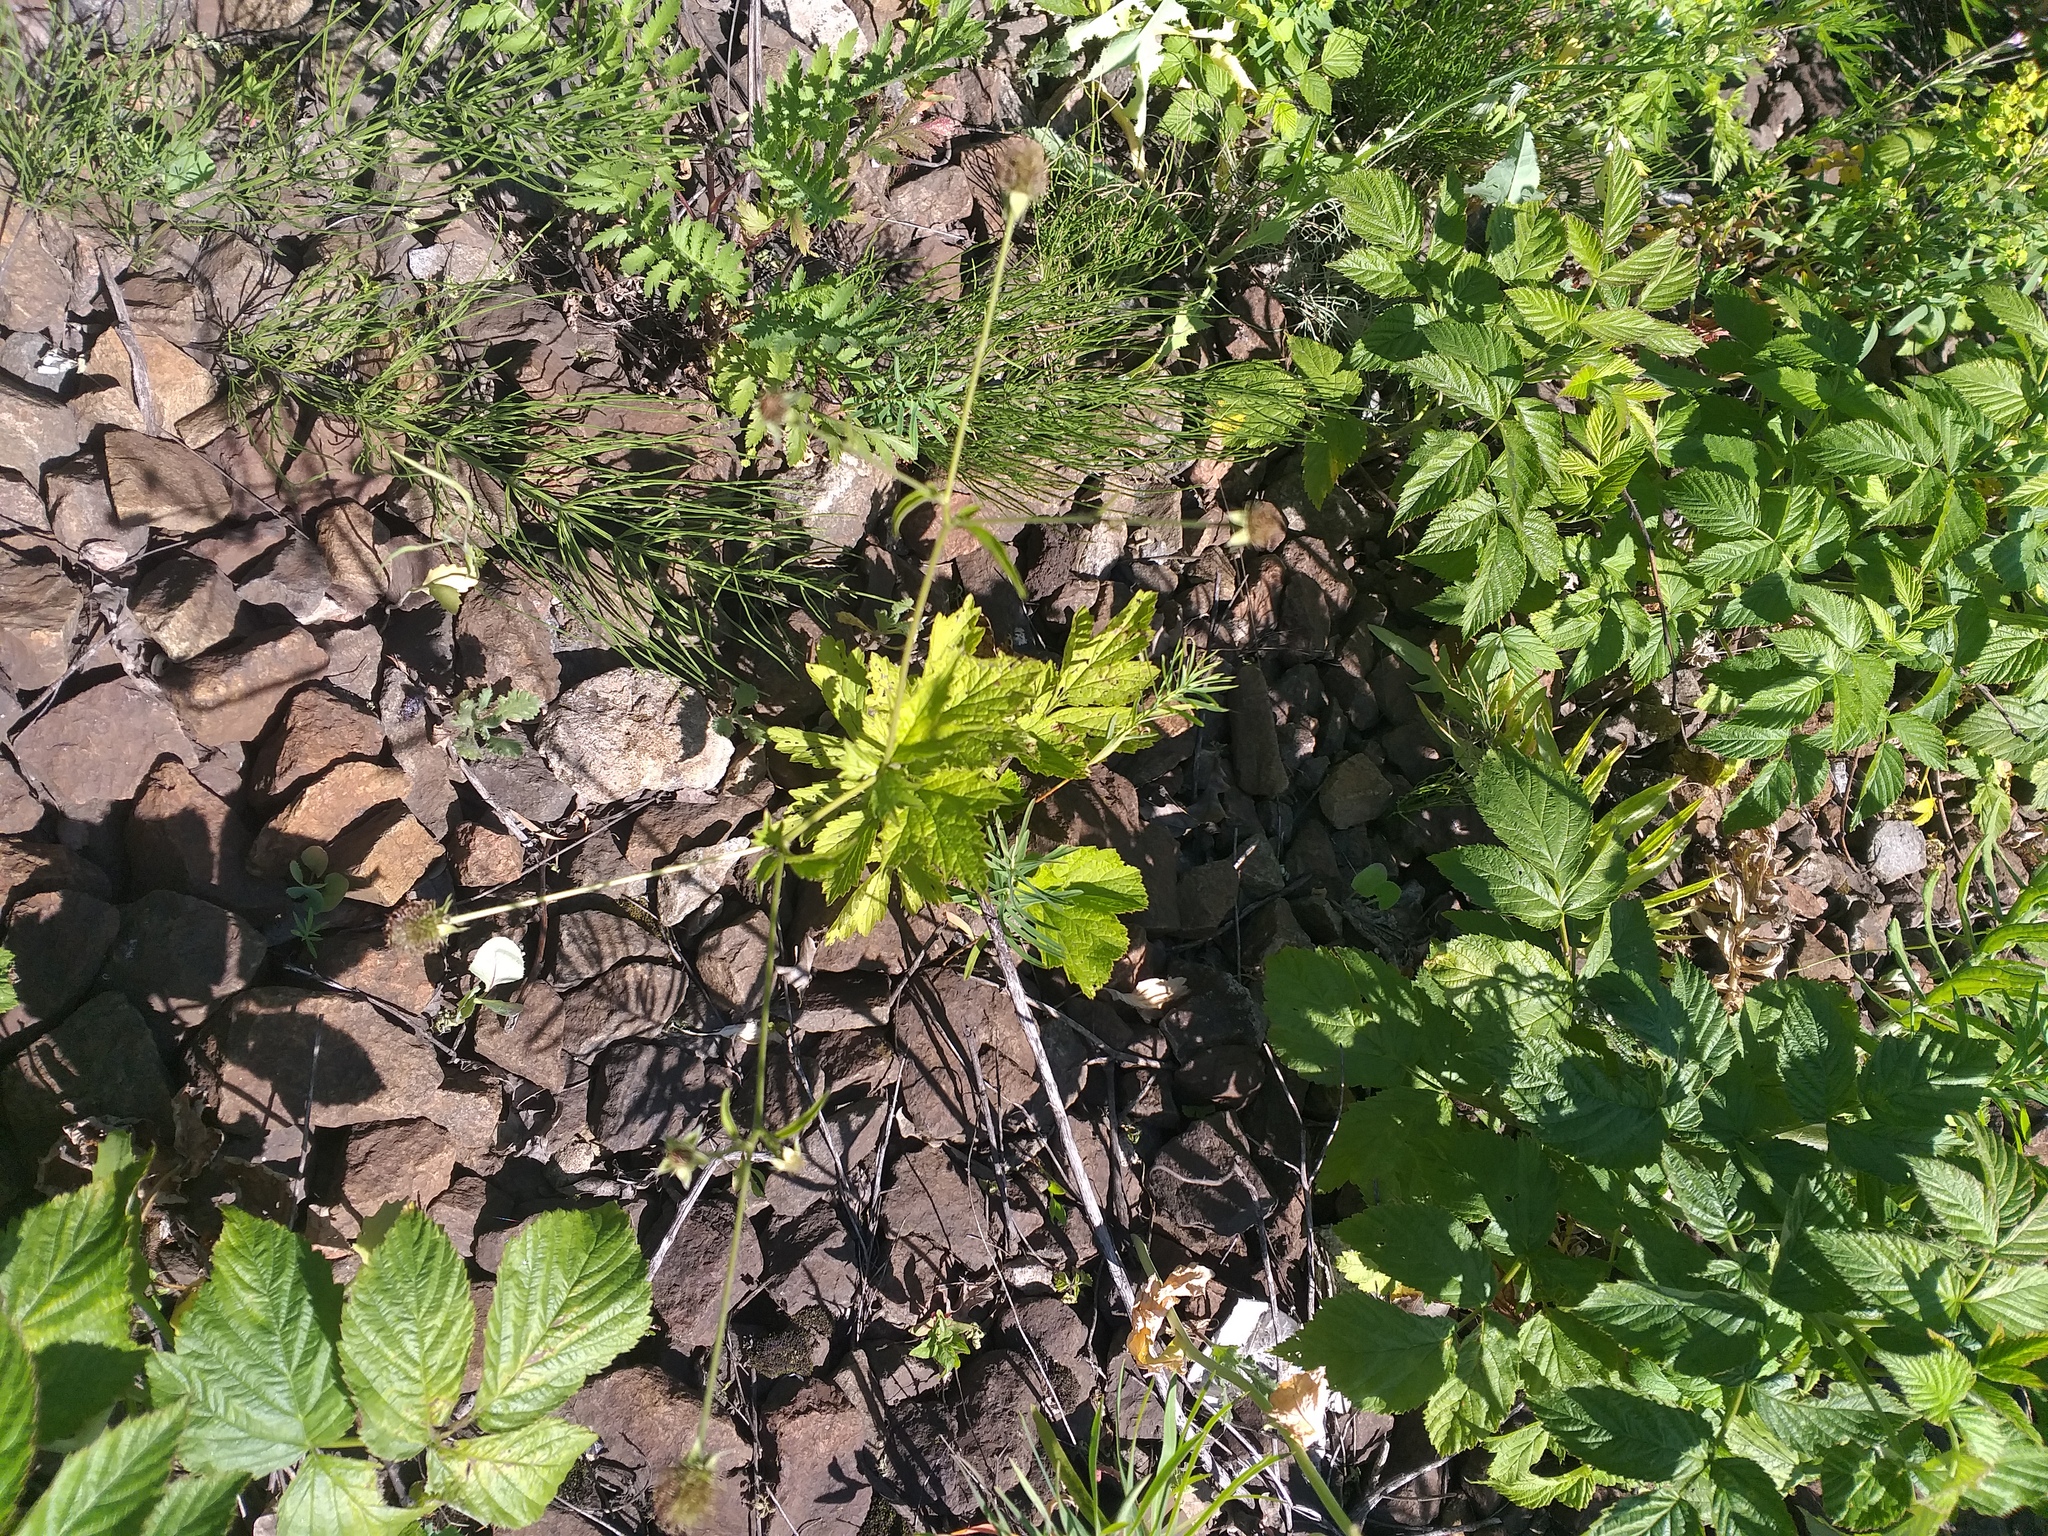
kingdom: Plantae
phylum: Tracheophyta
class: Magnoliopsida
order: Rosales
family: Rosaceae
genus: Geum
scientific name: Geum urbanum
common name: Wood avens
